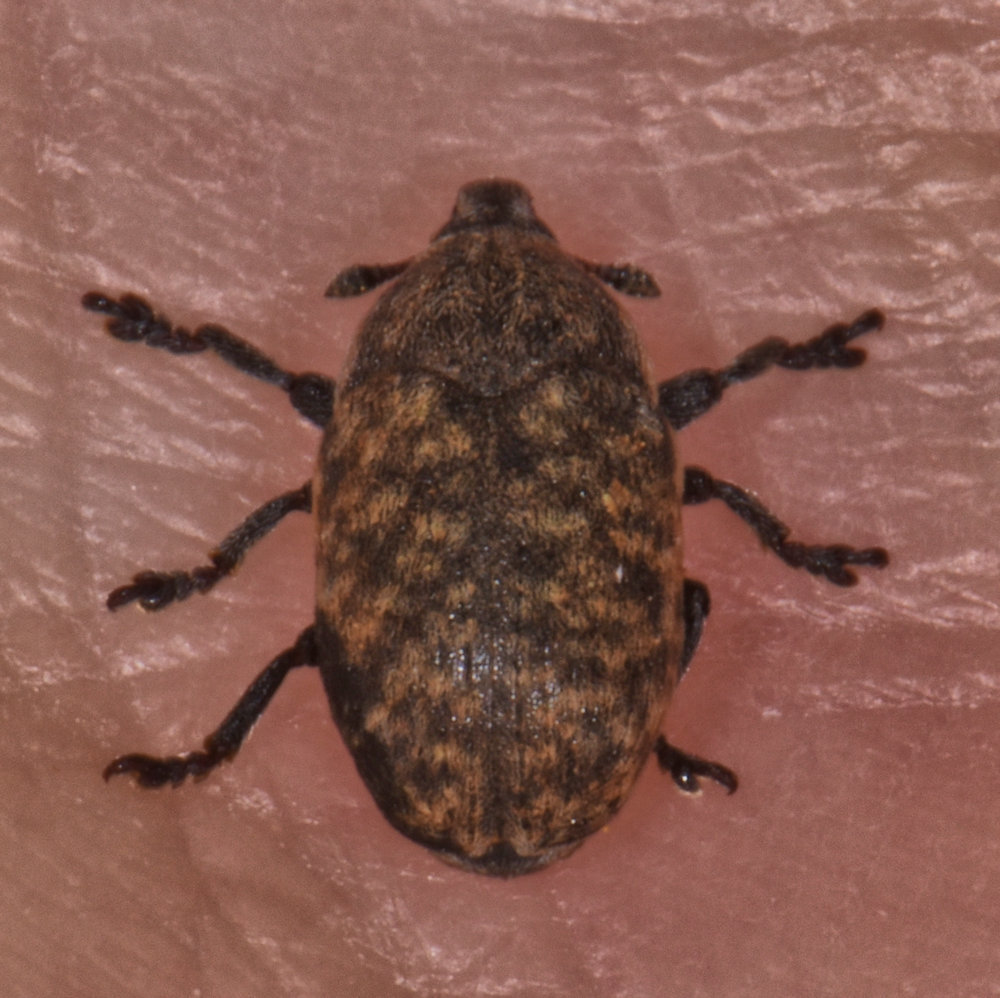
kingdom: Animalia
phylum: Arthropoda
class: Insecta
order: Coleoptera
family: Curculionidae
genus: Larinus
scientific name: Larinus obtusus
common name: Weevil
